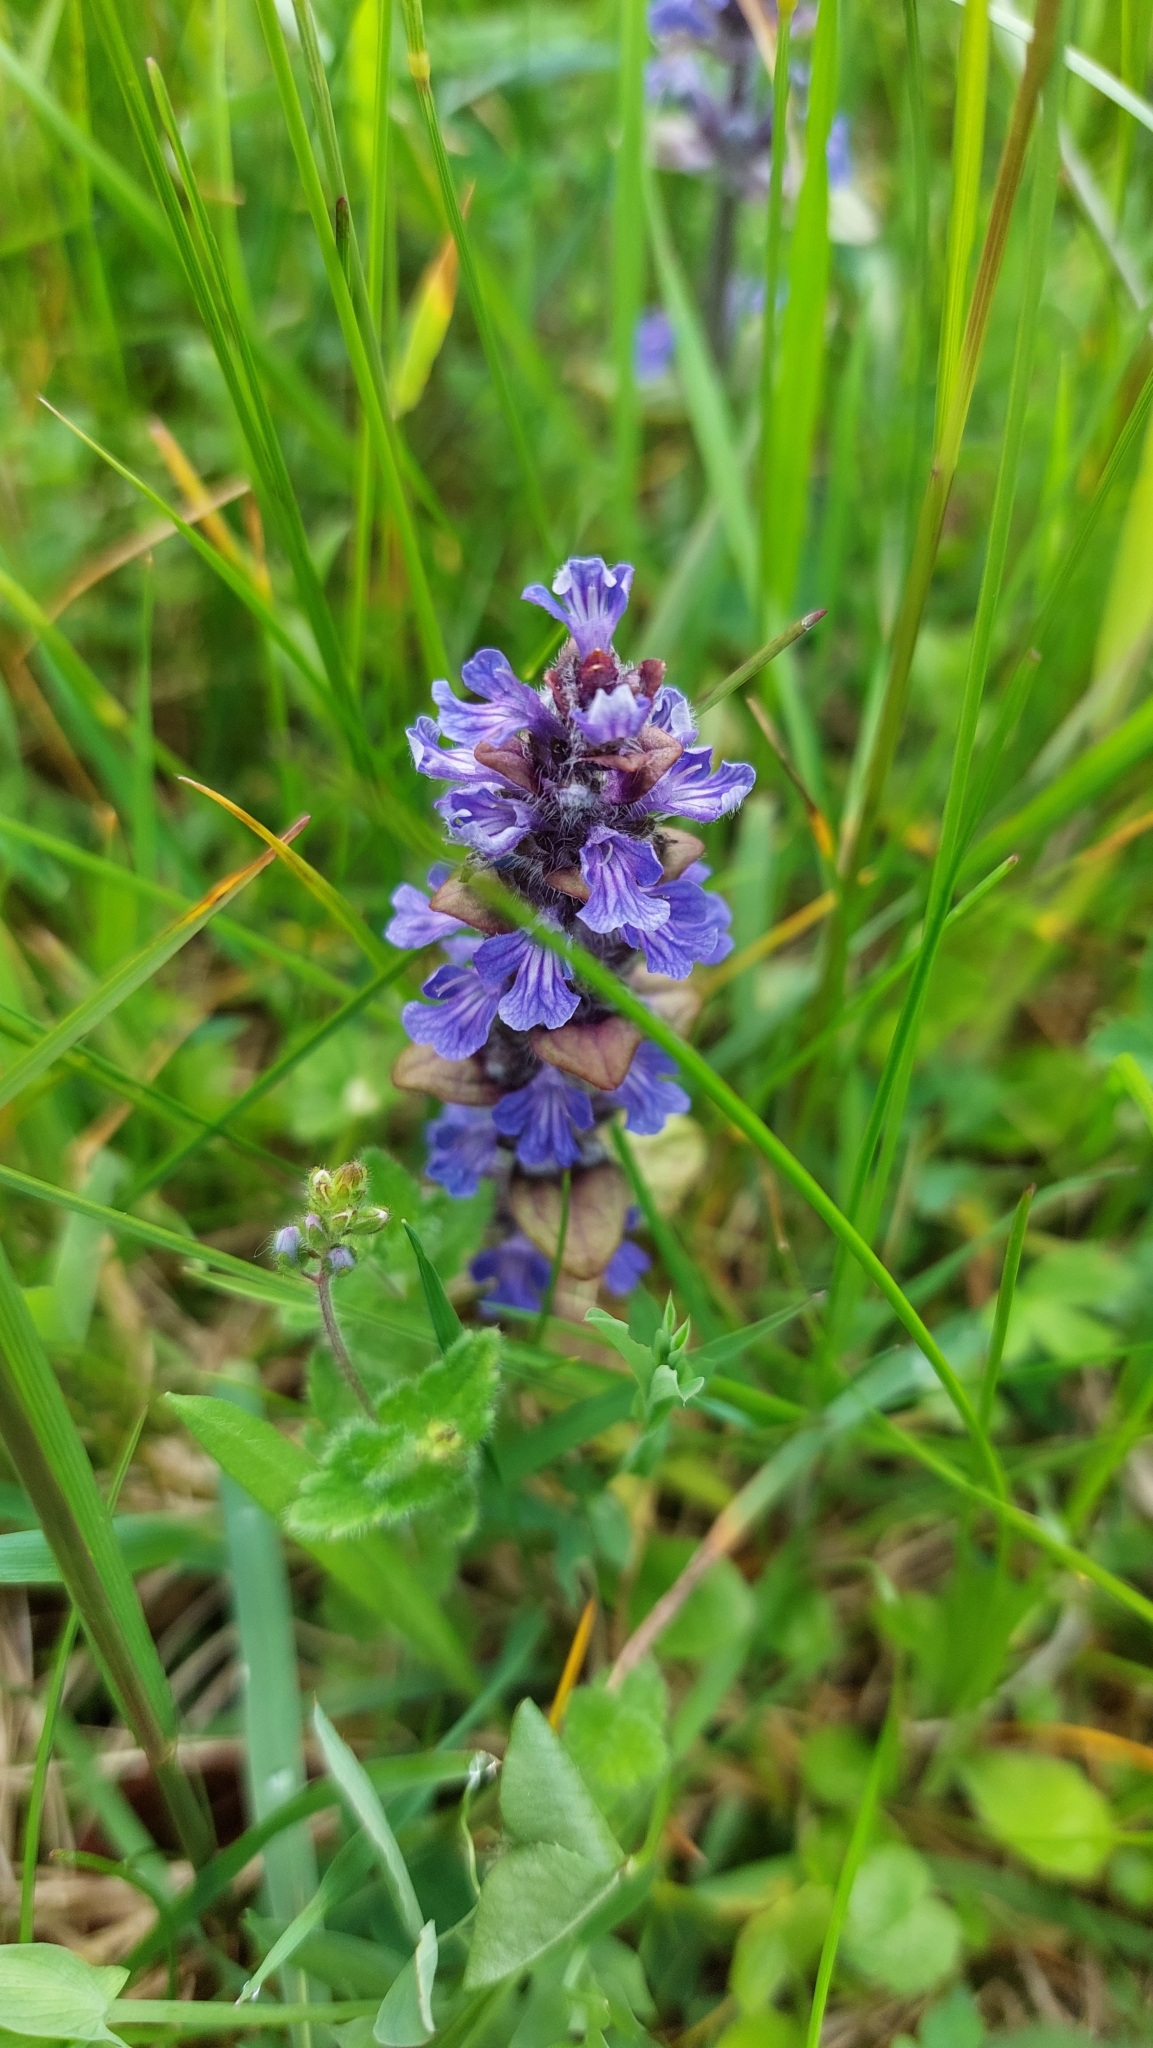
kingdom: Plantae
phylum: Tracheophyta
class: Magnoliopsida
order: Lamiales
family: Lamiaceae
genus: Ajuga
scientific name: Ajuga reptans
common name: Bugle
